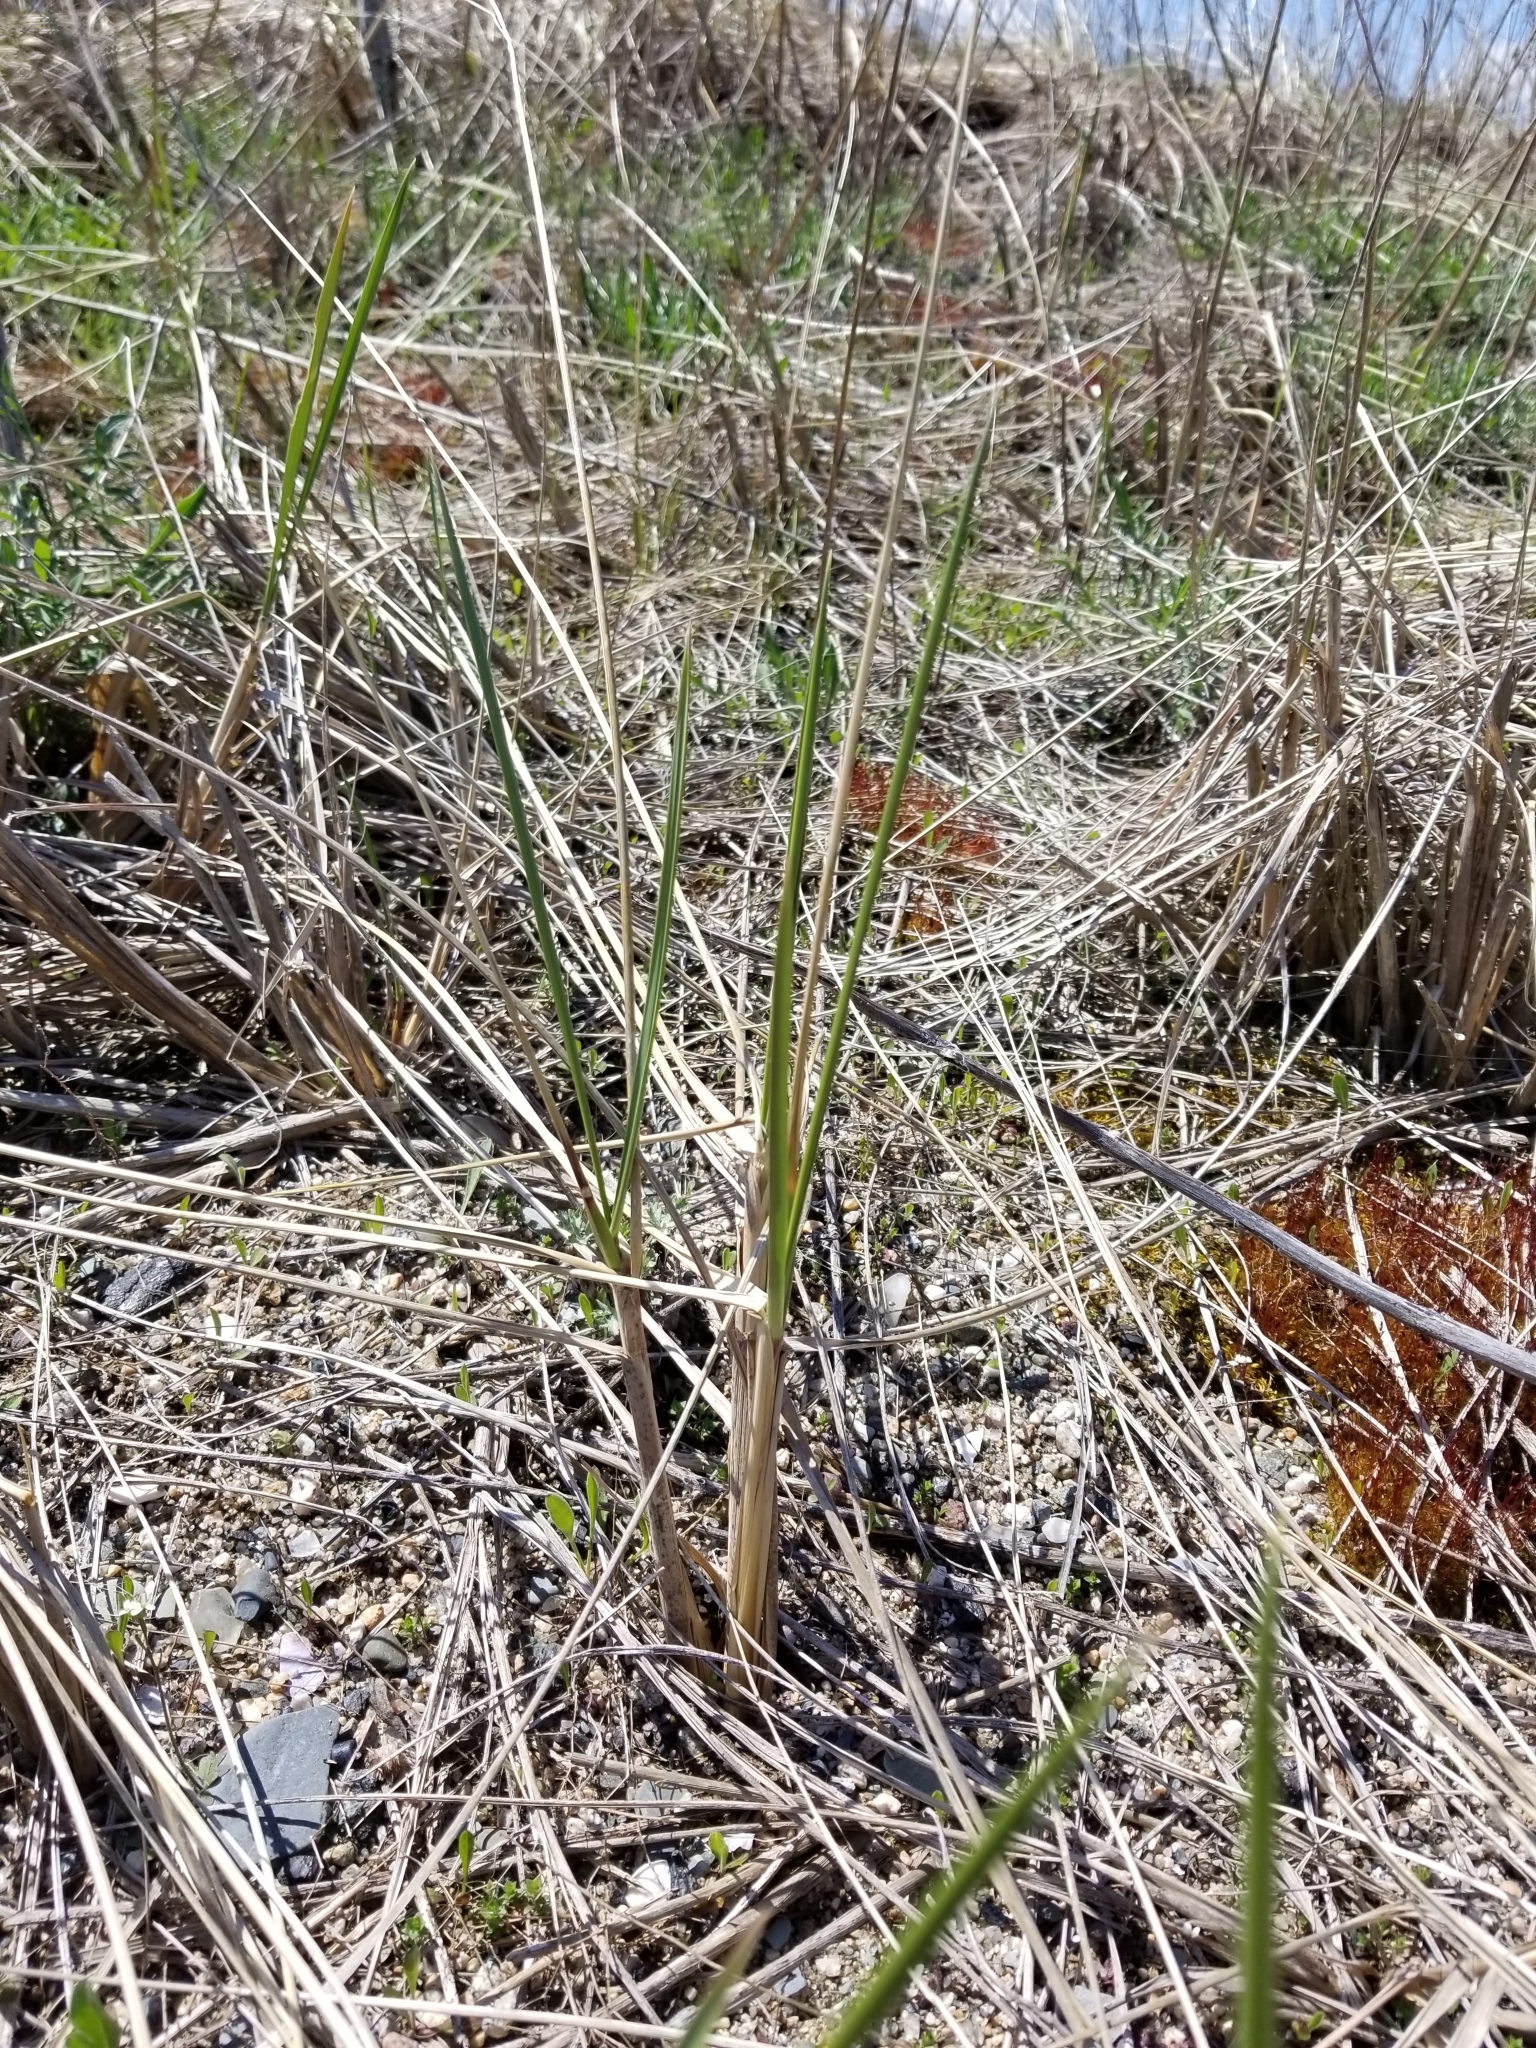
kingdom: Plantae
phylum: Tracheophyta
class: Liliopsida
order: Poales
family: Poaceae
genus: Calamagrostis
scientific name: Calamagrostis breviligulata
